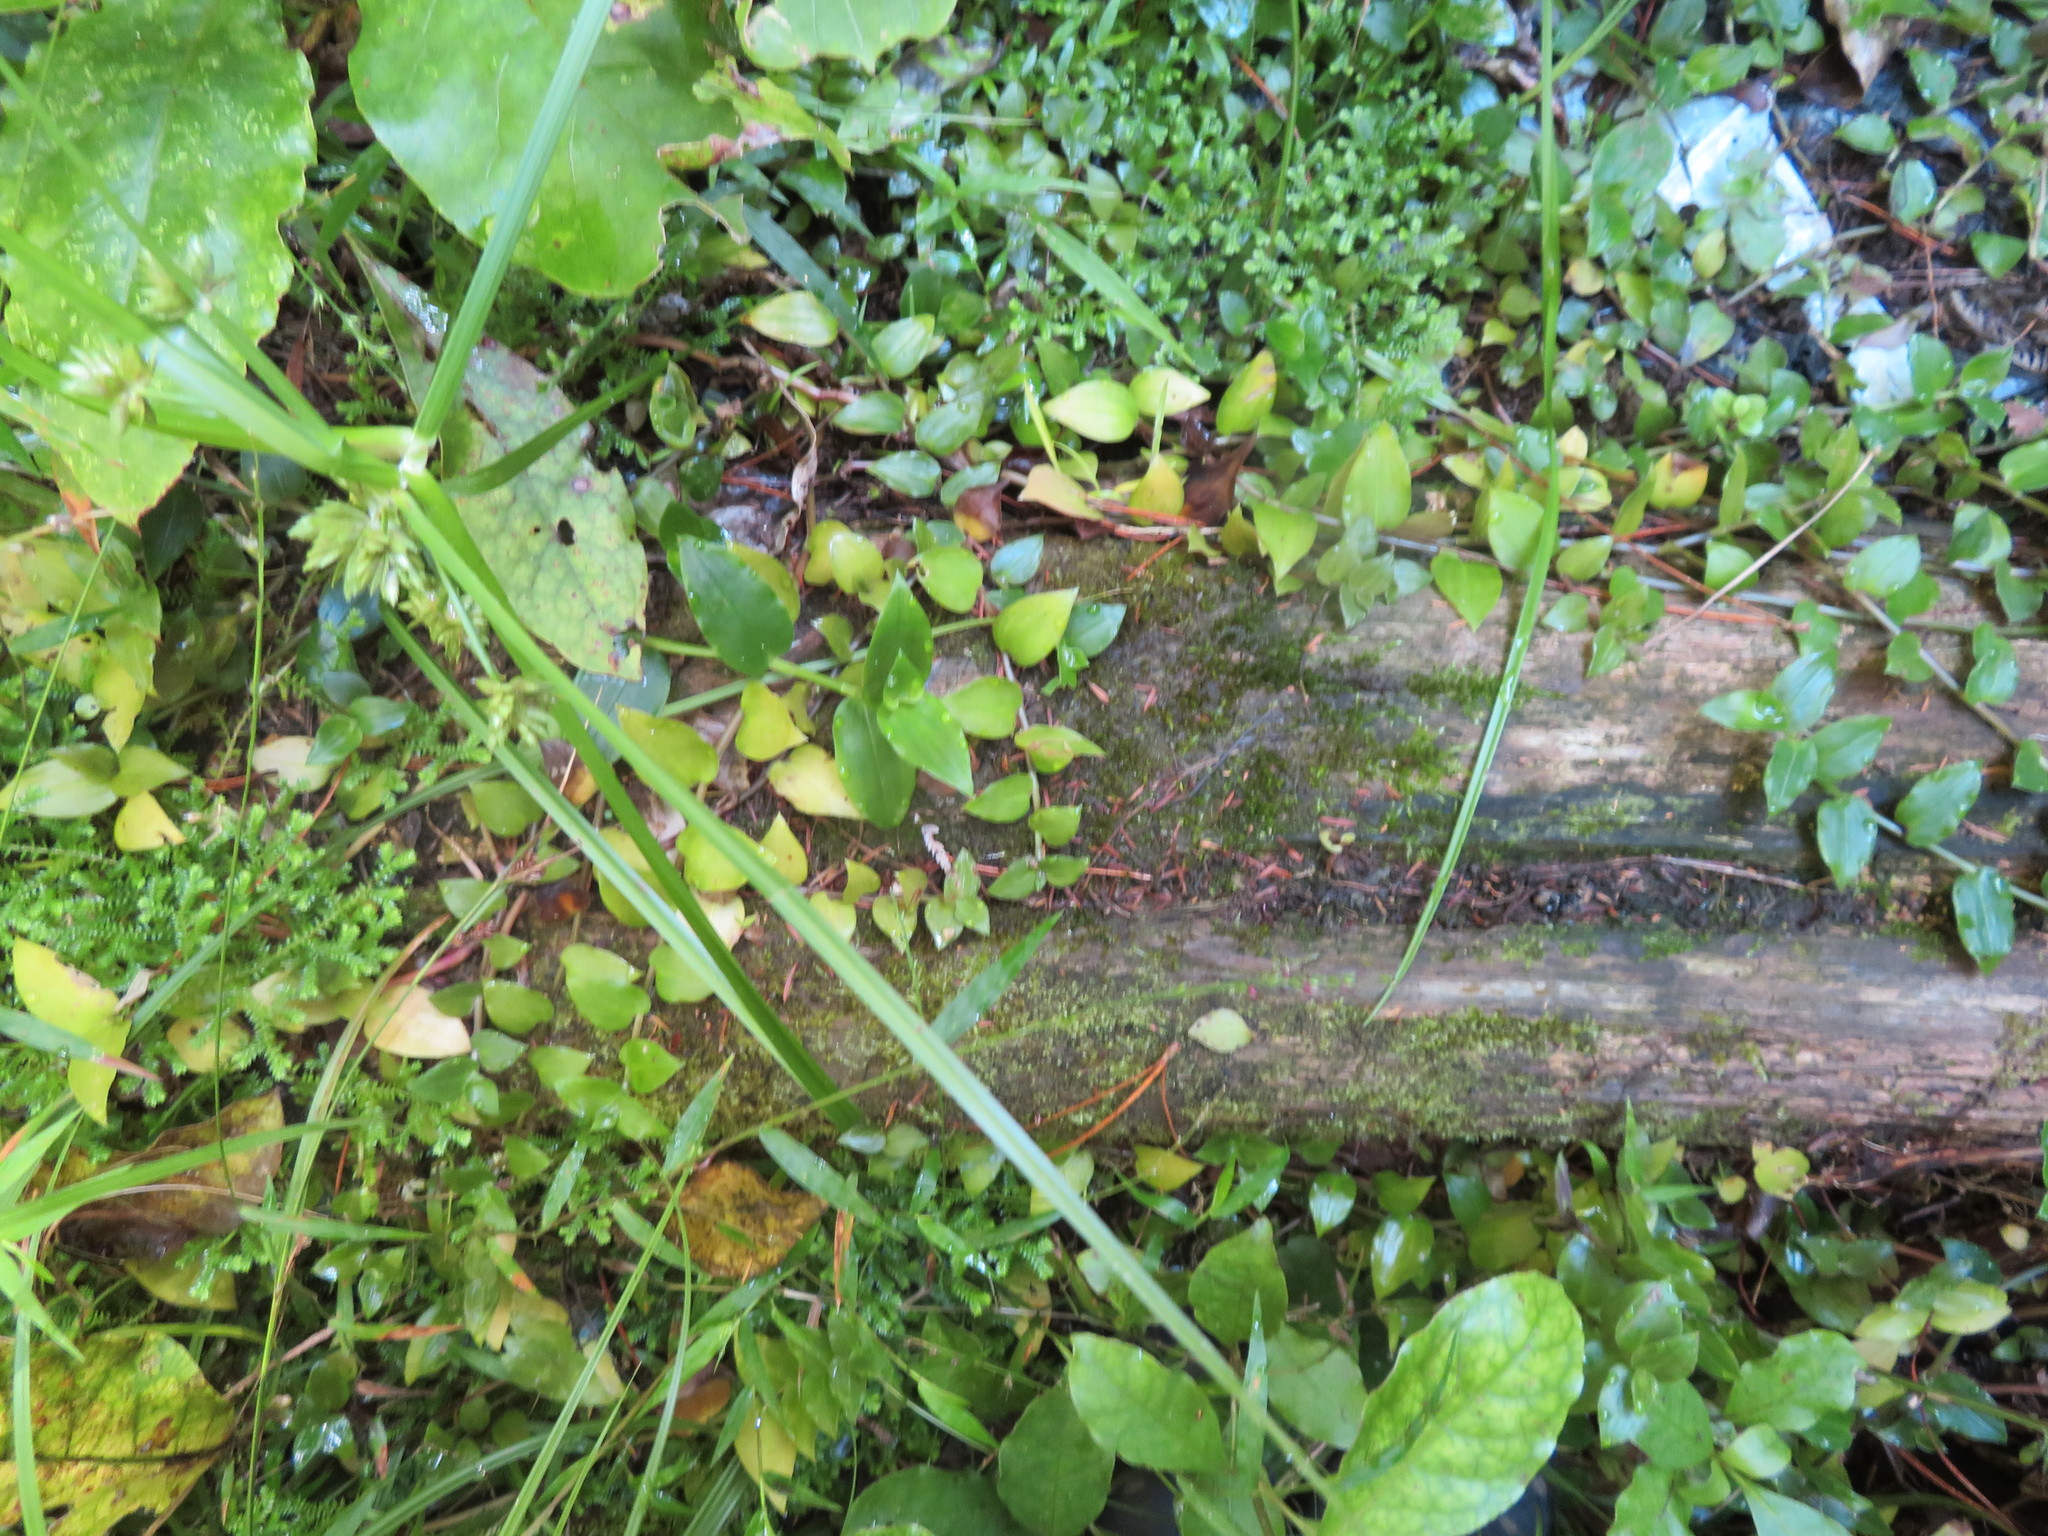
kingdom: Plantae
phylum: Tracheophyta
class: Liliopsida
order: Poales
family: Cyperaceae
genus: Cyperus
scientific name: Cyperus eragrostis
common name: Tall flatsedge
